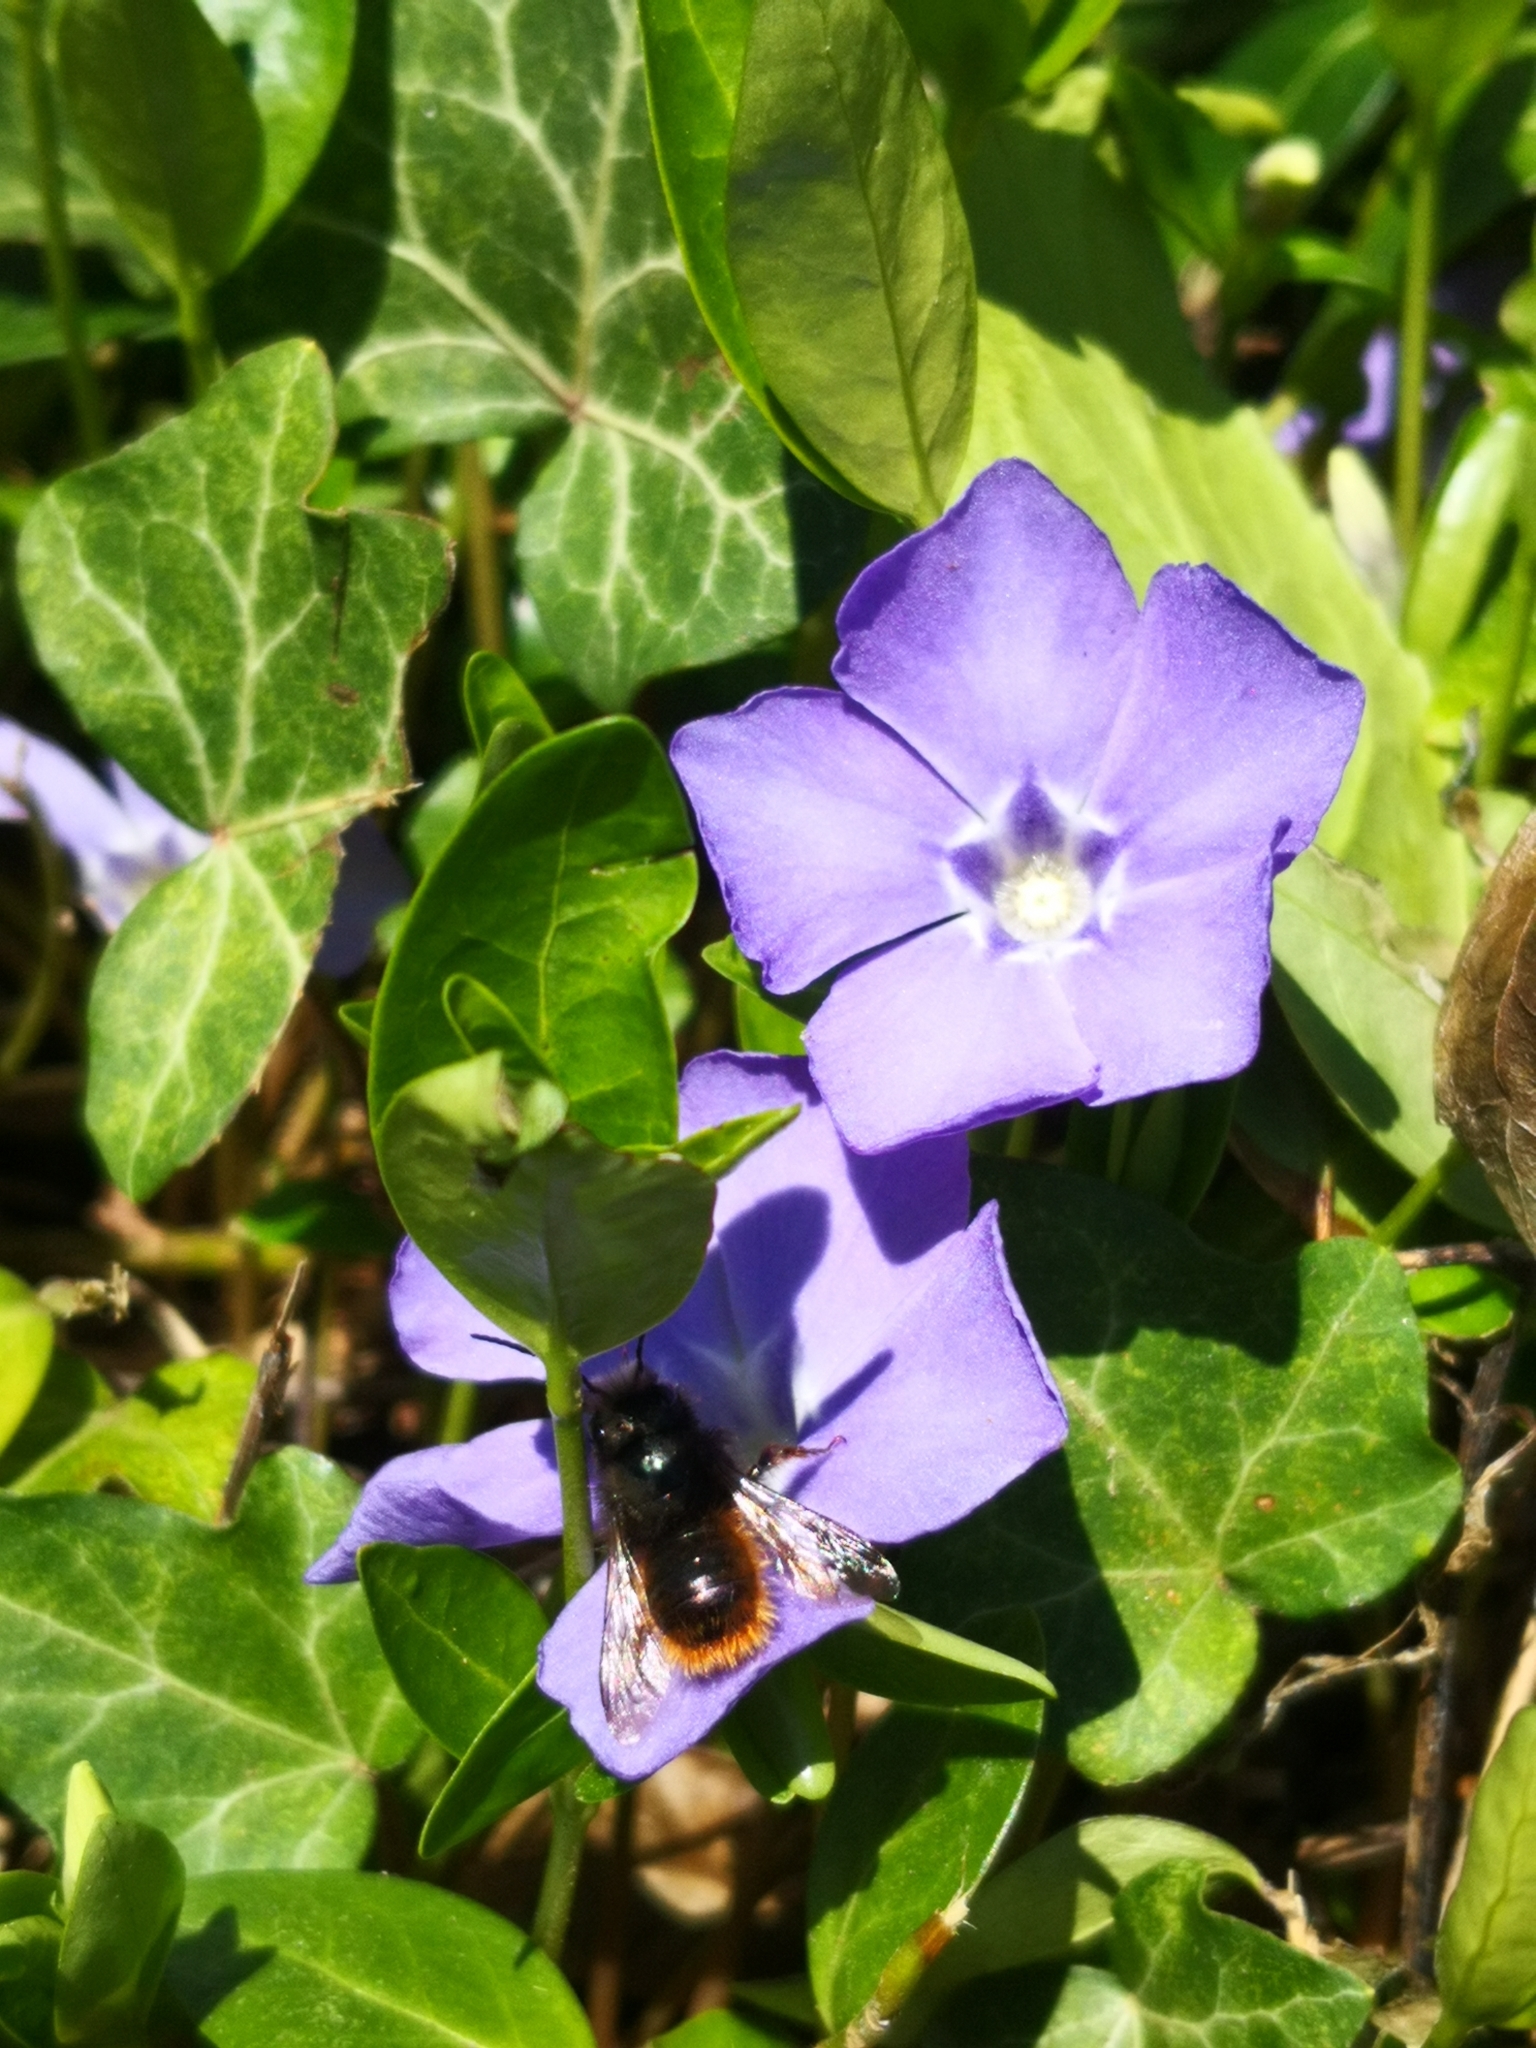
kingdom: Plantae
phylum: Tracheophyta
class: Magnoliopsida
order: Gentianales
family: Apocynaceae
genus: Vinca
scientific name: Vinca minor
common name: Lesser periwinkle
